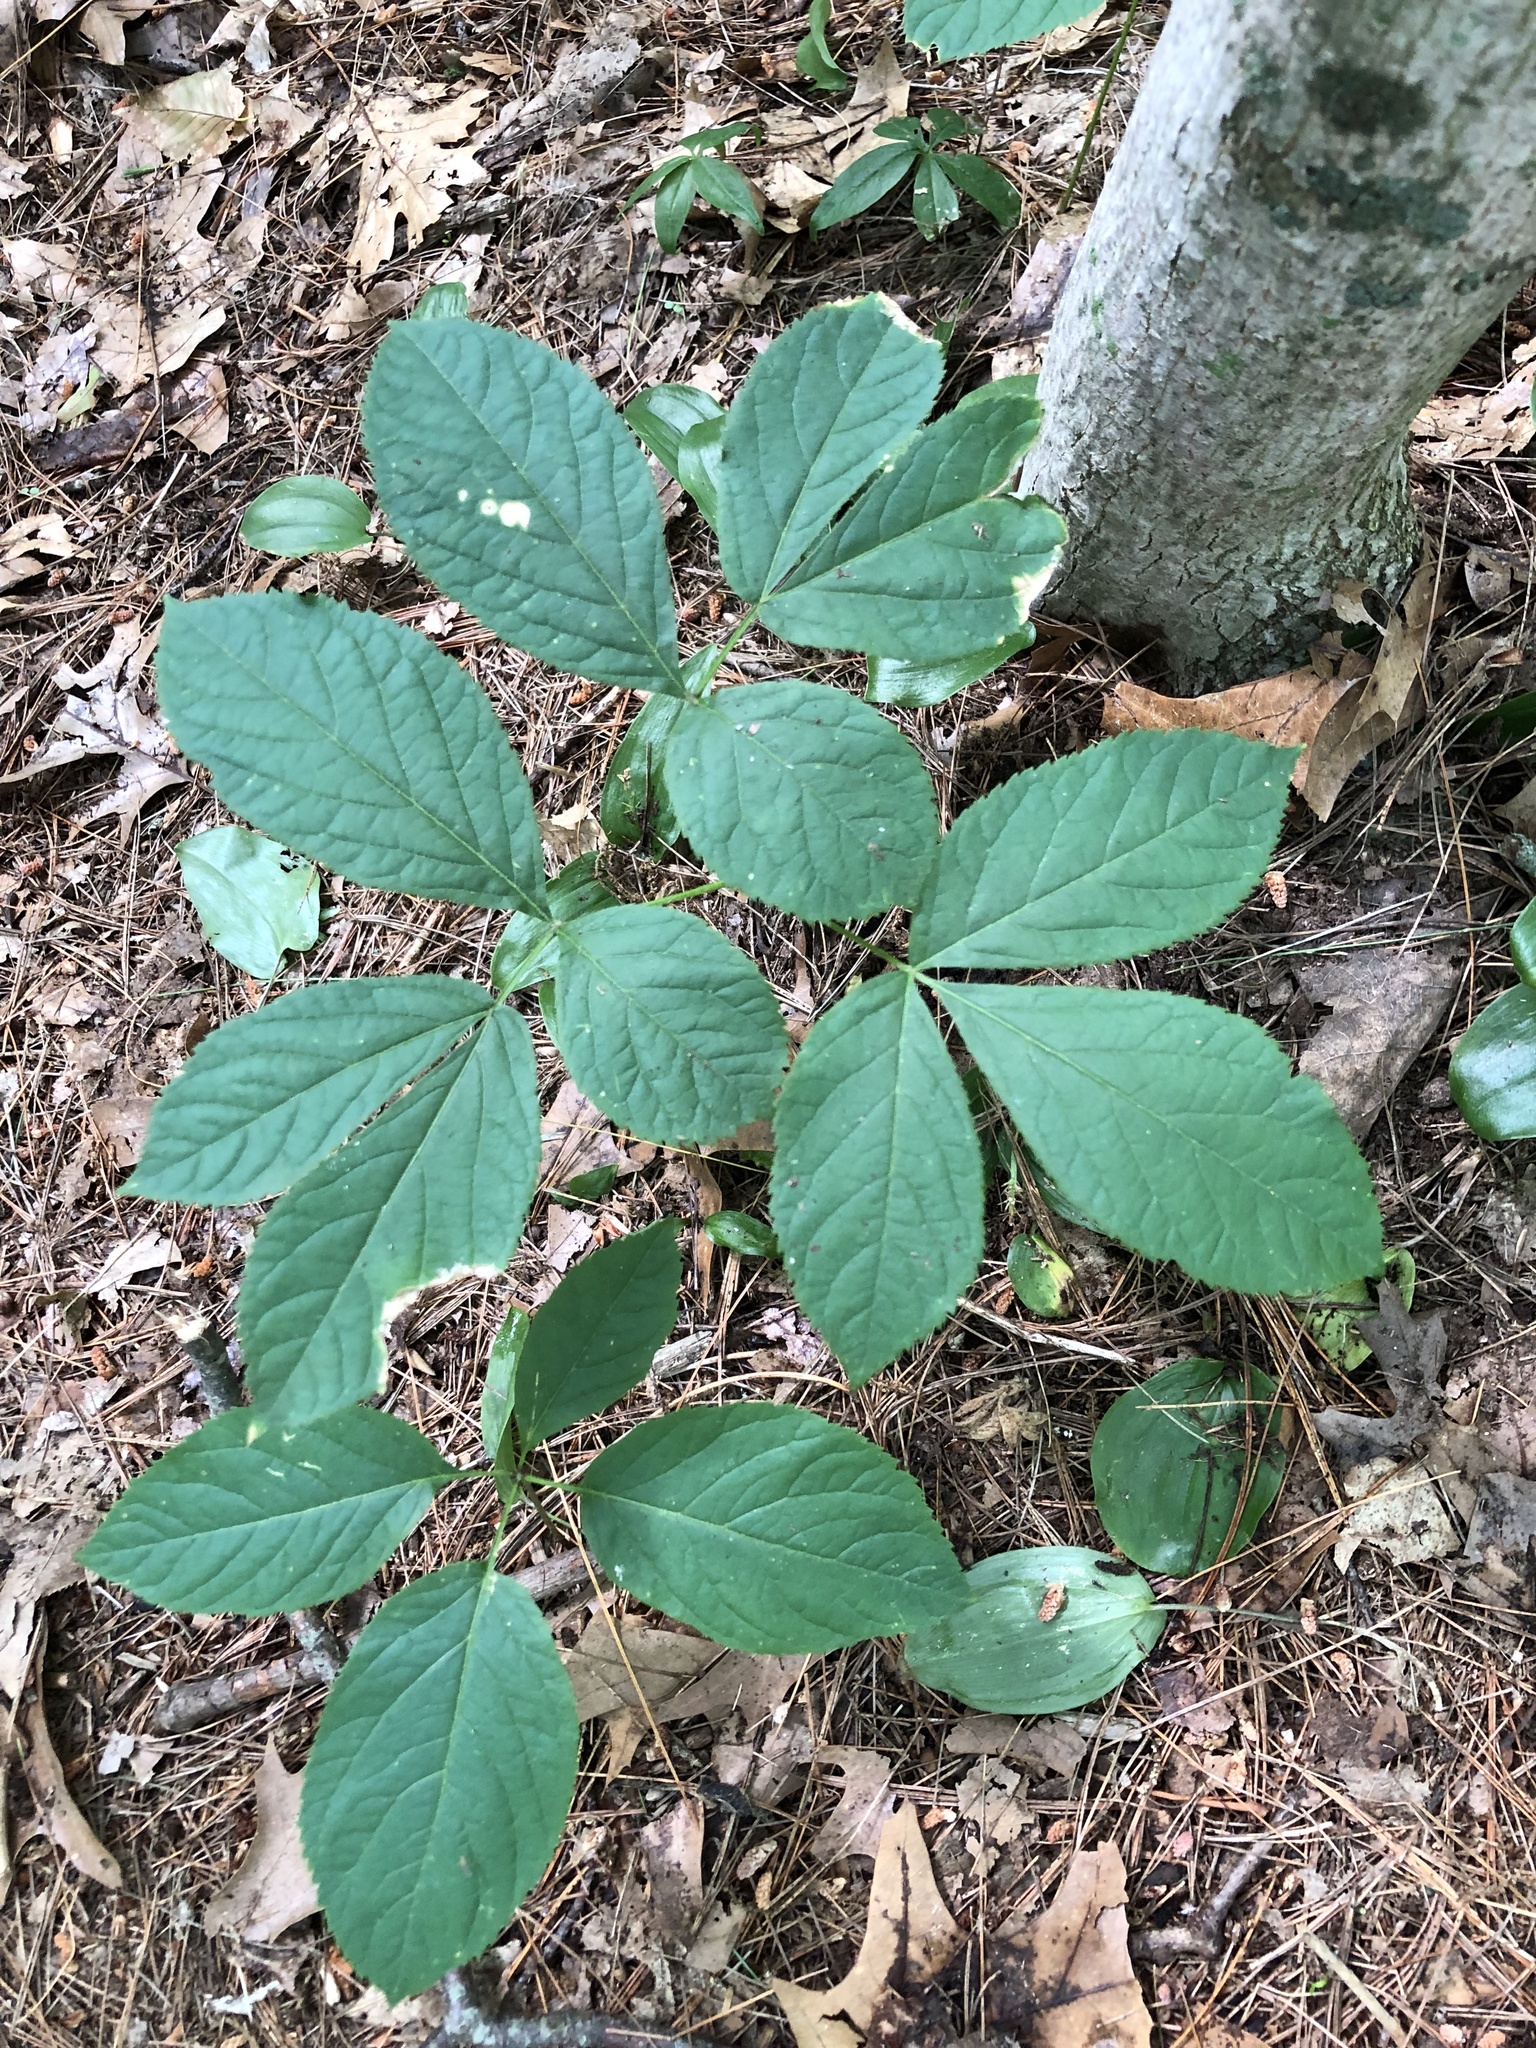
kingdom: Plantae
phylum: Tracheophyta
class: Magnoliopsida
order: Apiales
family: Araliaceae
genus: Aralia
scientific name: Aralia nudicaulis
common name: Wild sarsaparilla
